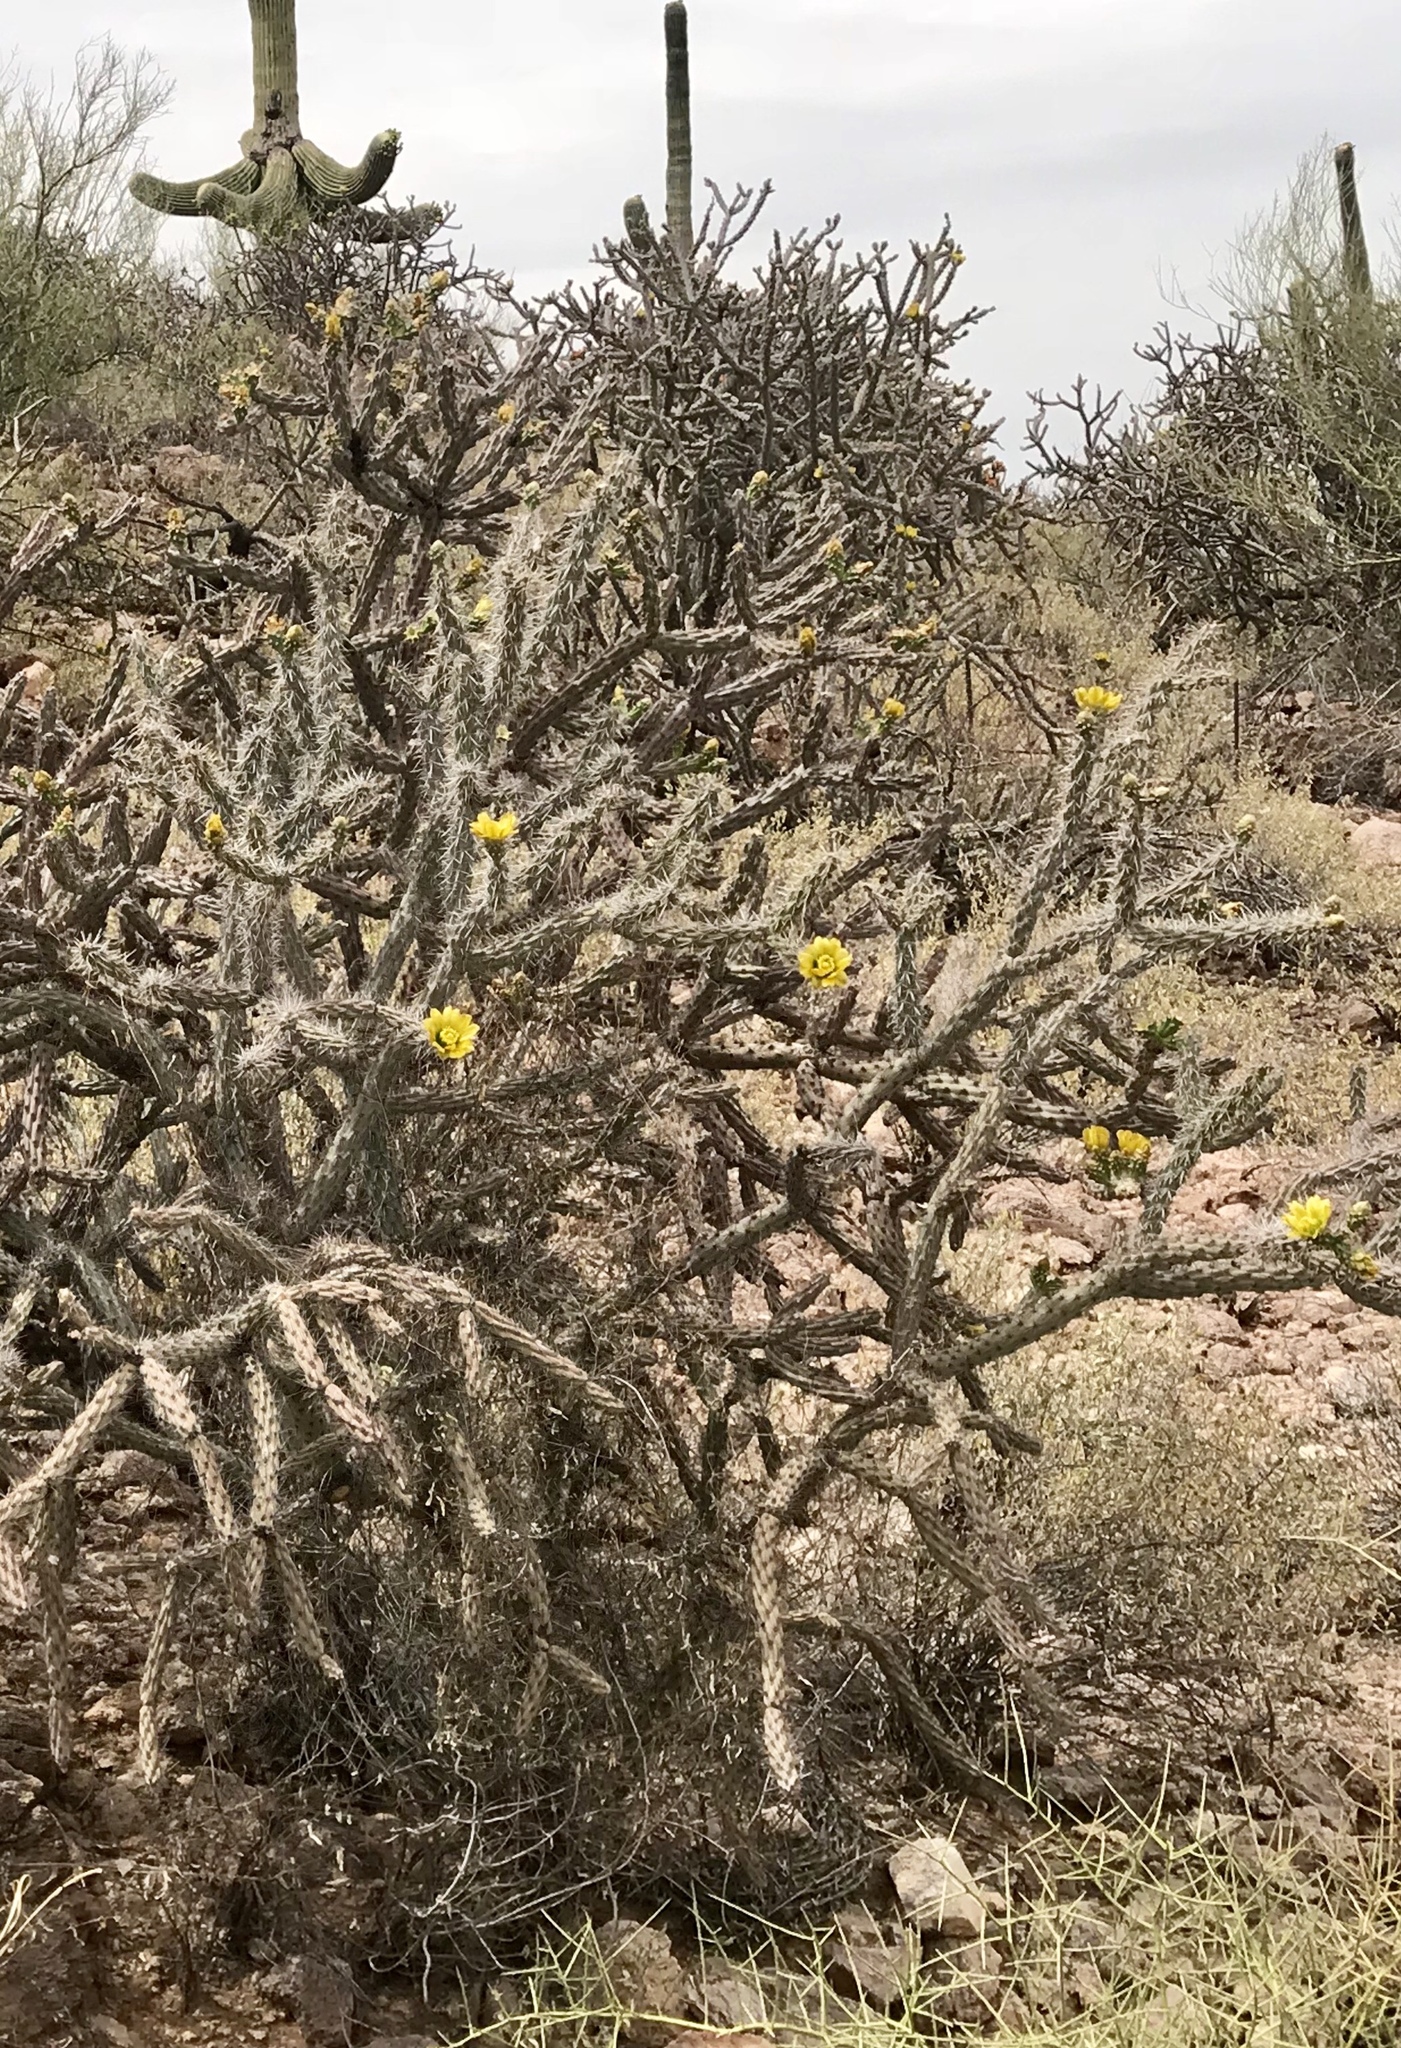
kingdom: Plantae
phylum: Tracheophyta
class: Magnoliopsida
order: Caryophyllales
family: Cactaceae
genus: Cylindropuntia
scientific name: Cylindropuntia acanthocarpa
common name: Buckhorn cholla
